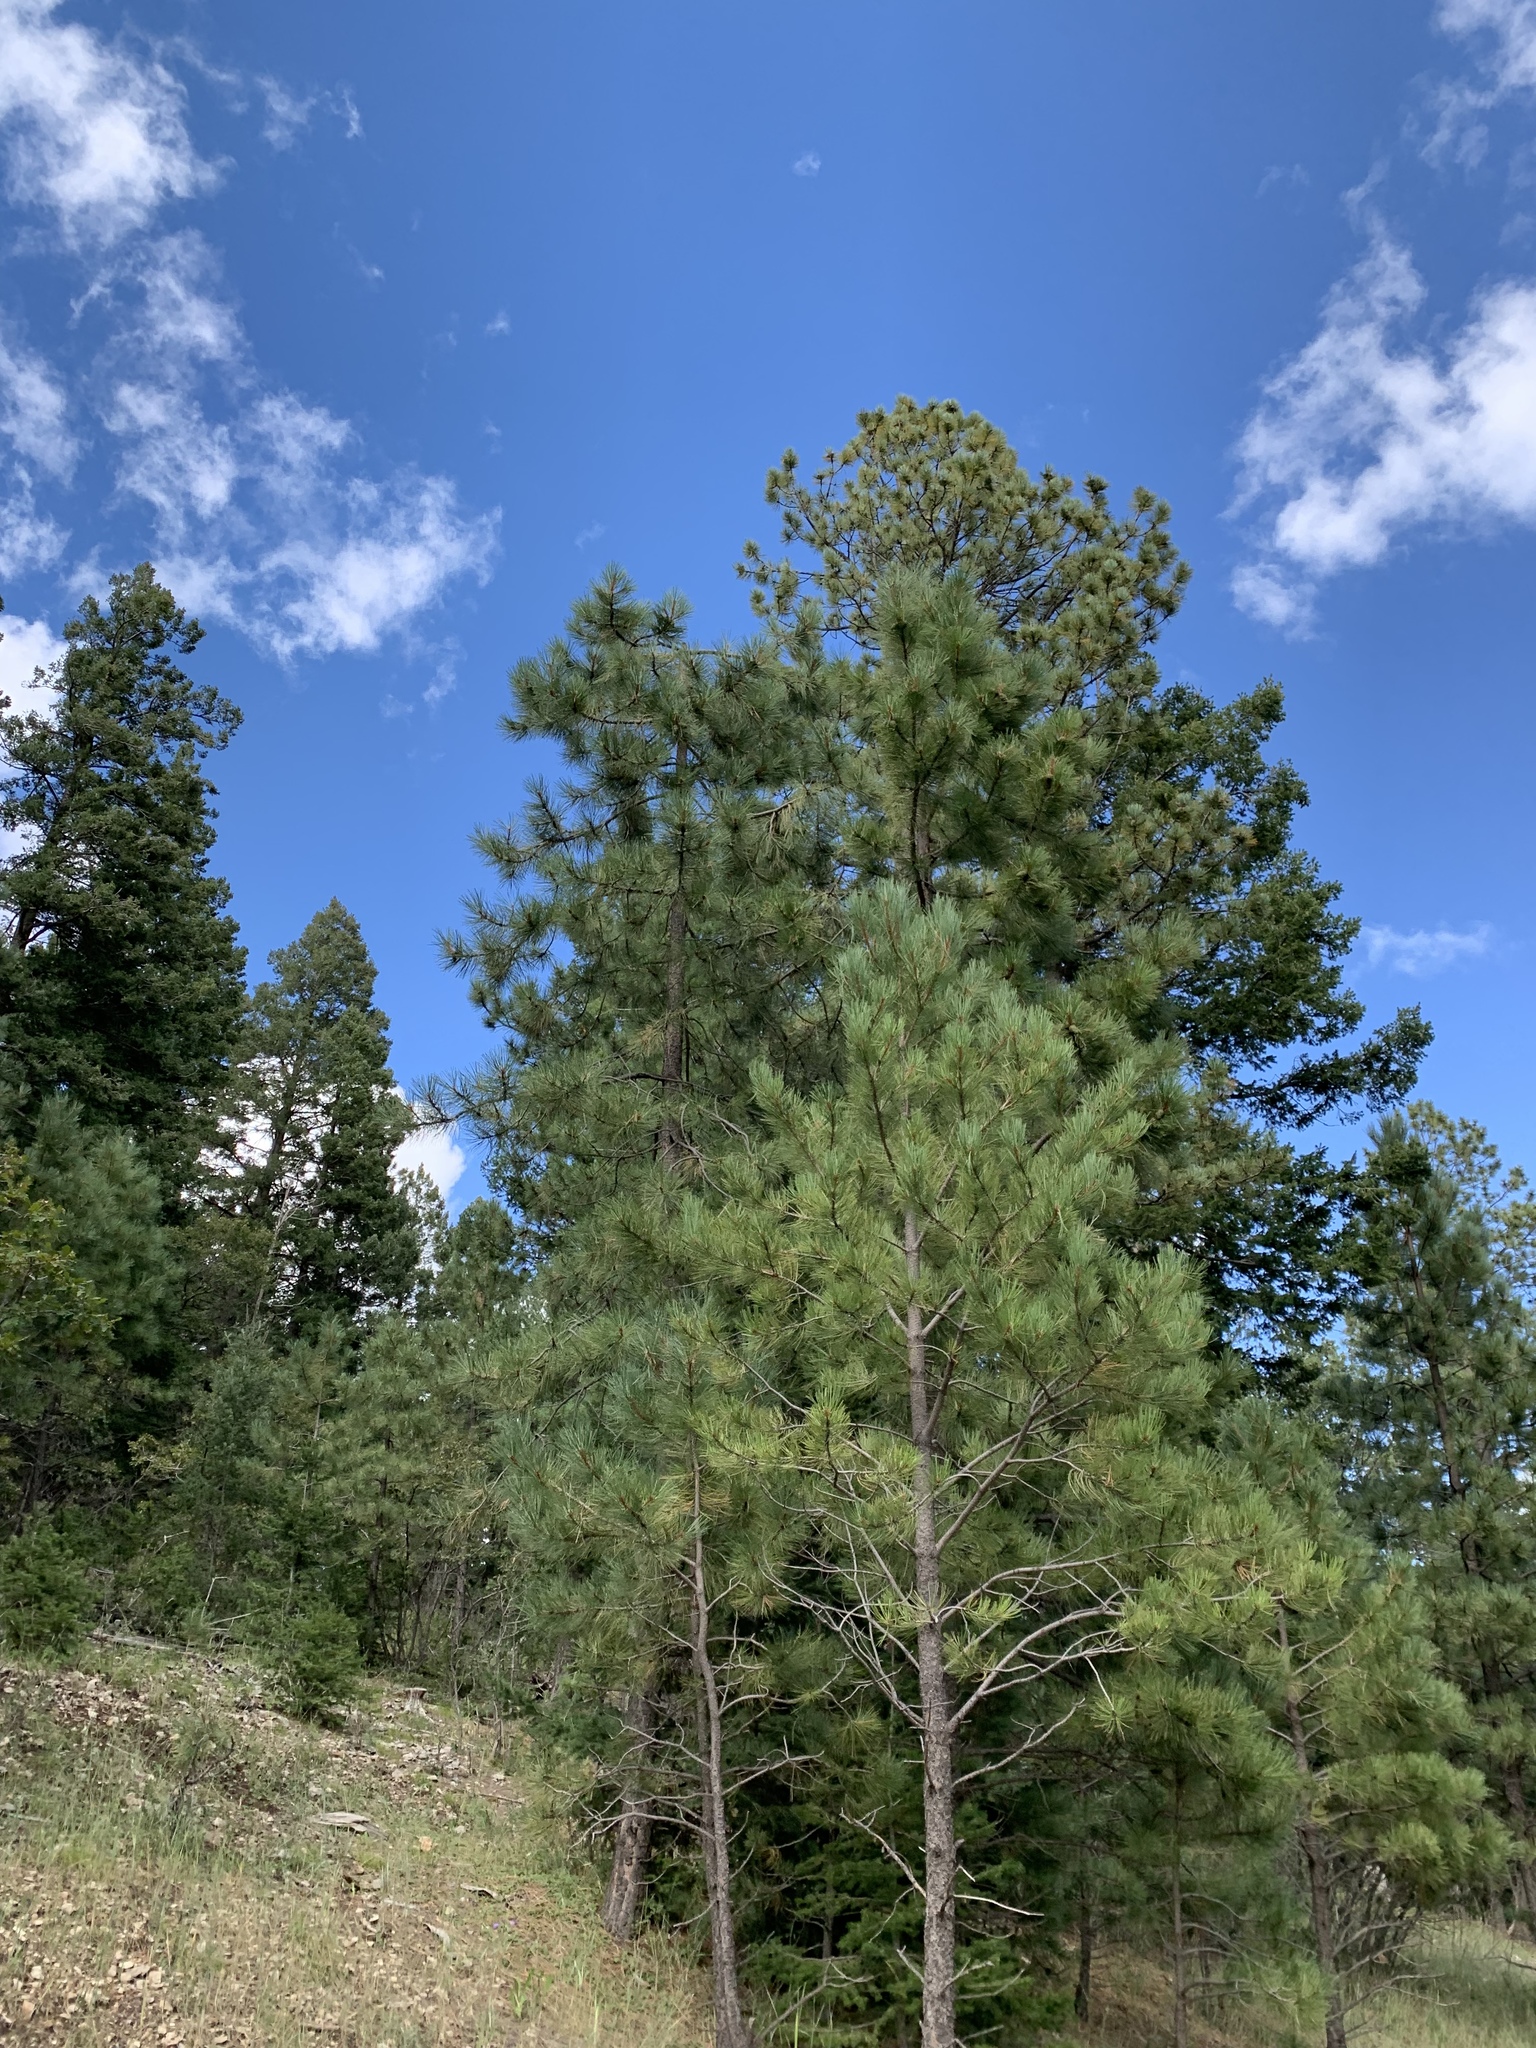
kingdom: Plantae
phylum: Tracheophyta
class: Pinopsida
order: Pinales
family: Pinaceae
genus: Pinus
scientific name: Pinus ponderosa
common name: Western yellow-pine
